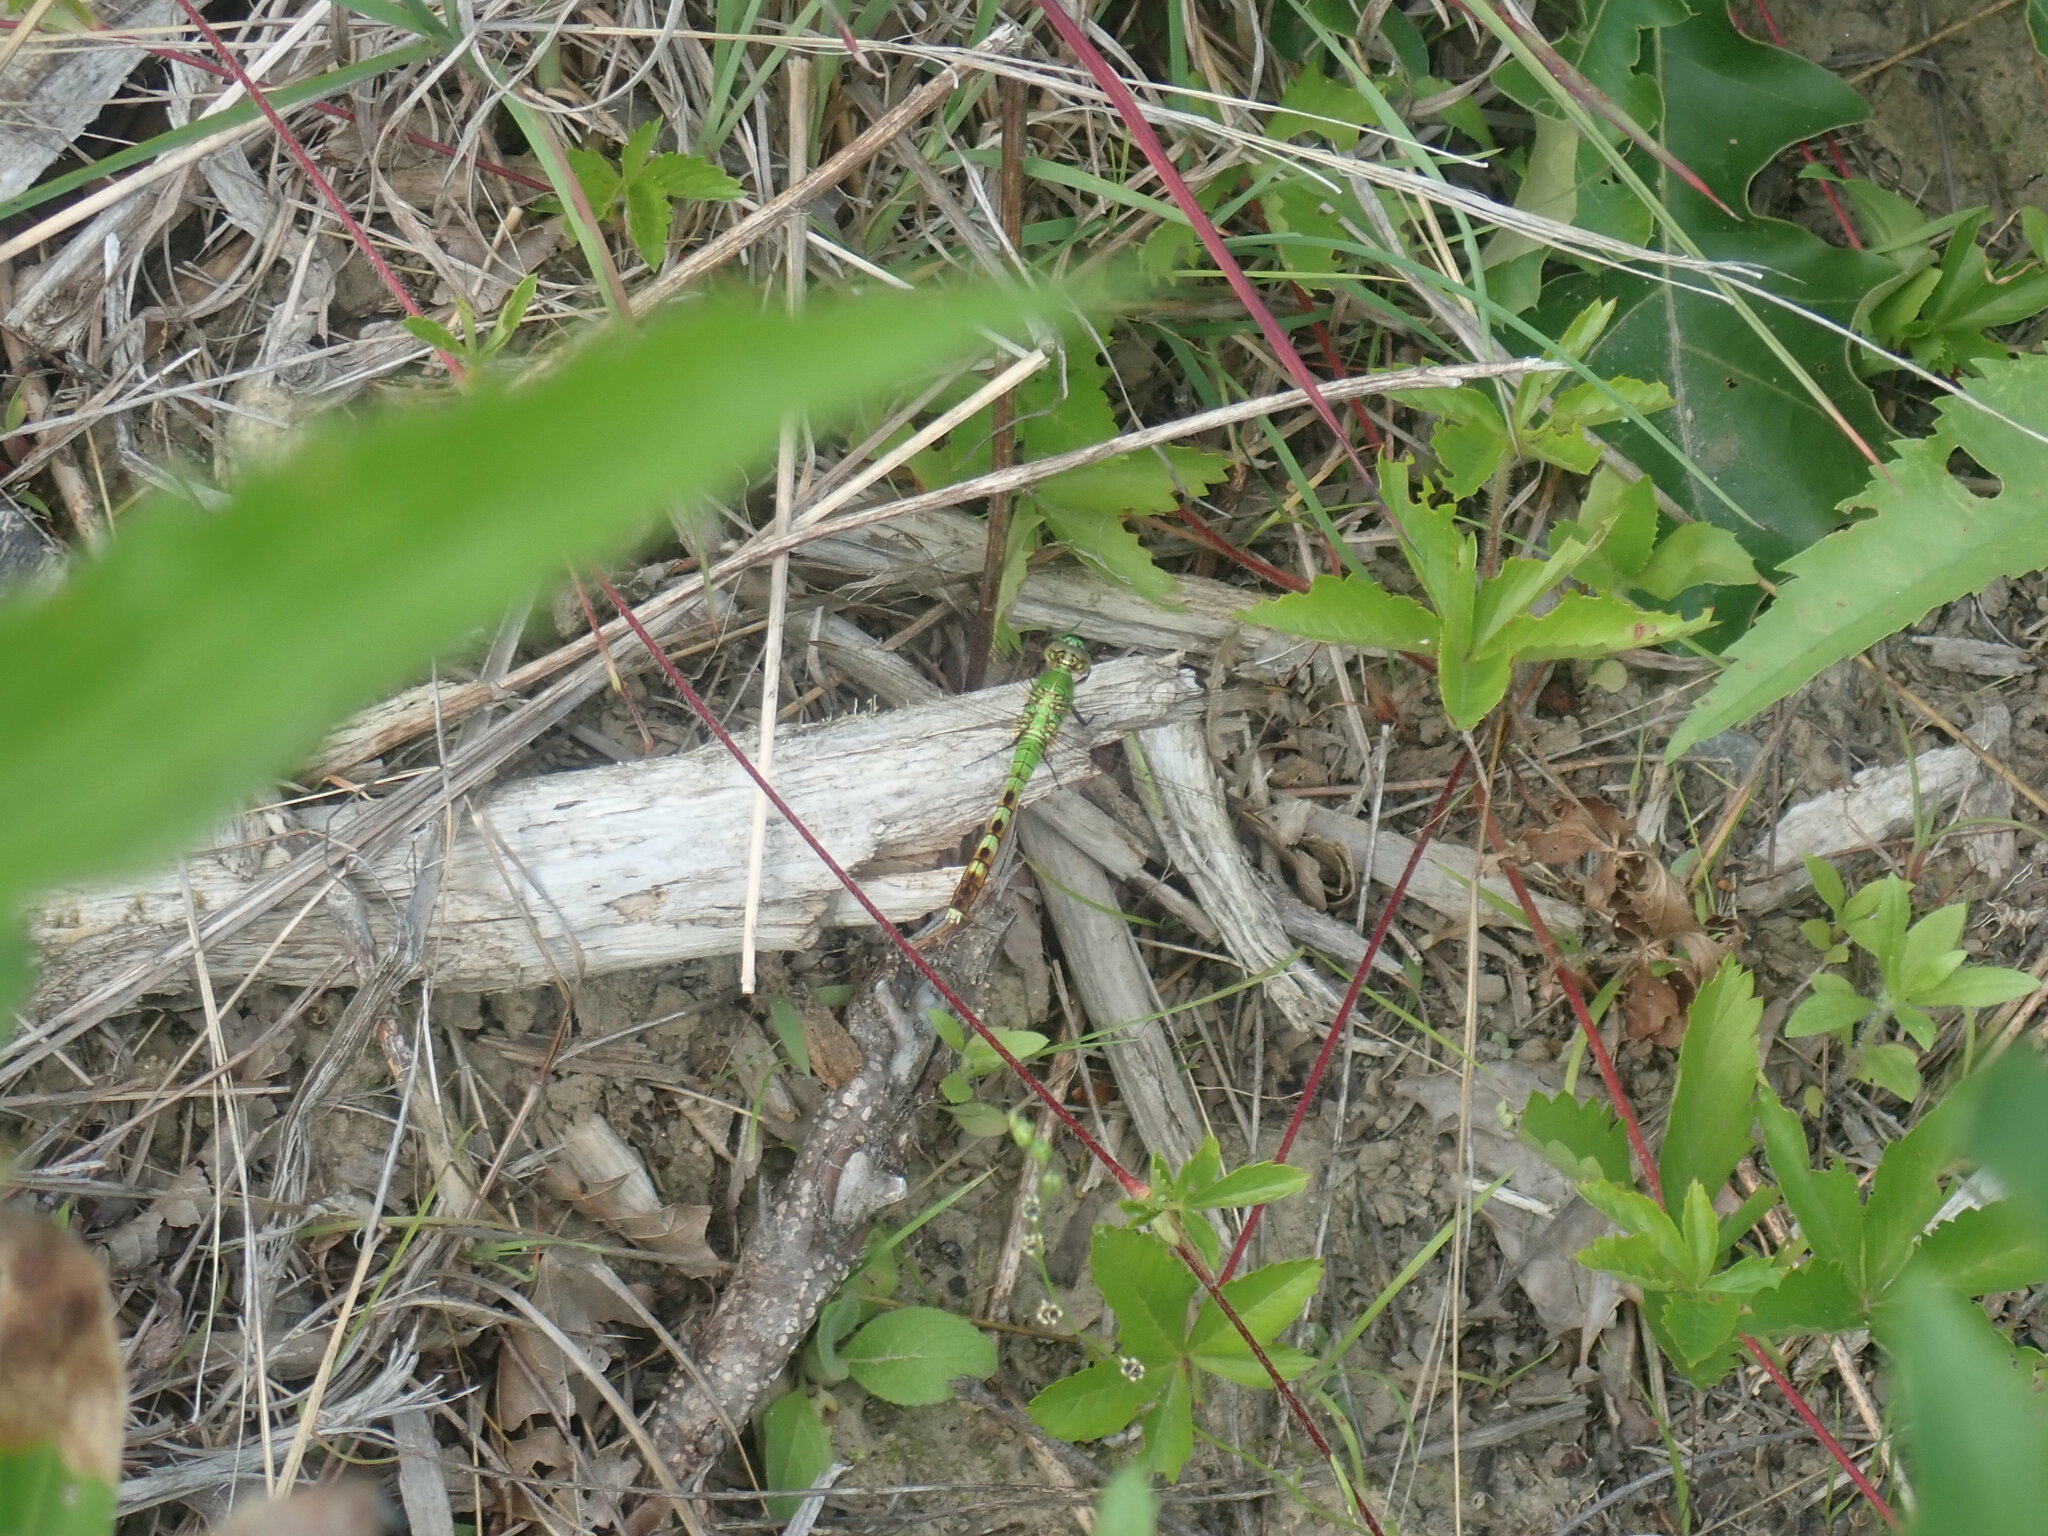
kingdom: Animalia
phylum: Arthropoda
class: Insecta
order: Odonata
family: Libellulidae
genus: Erythemis
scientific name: Erythemis simplicicollis
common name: Eastern pondhawk
